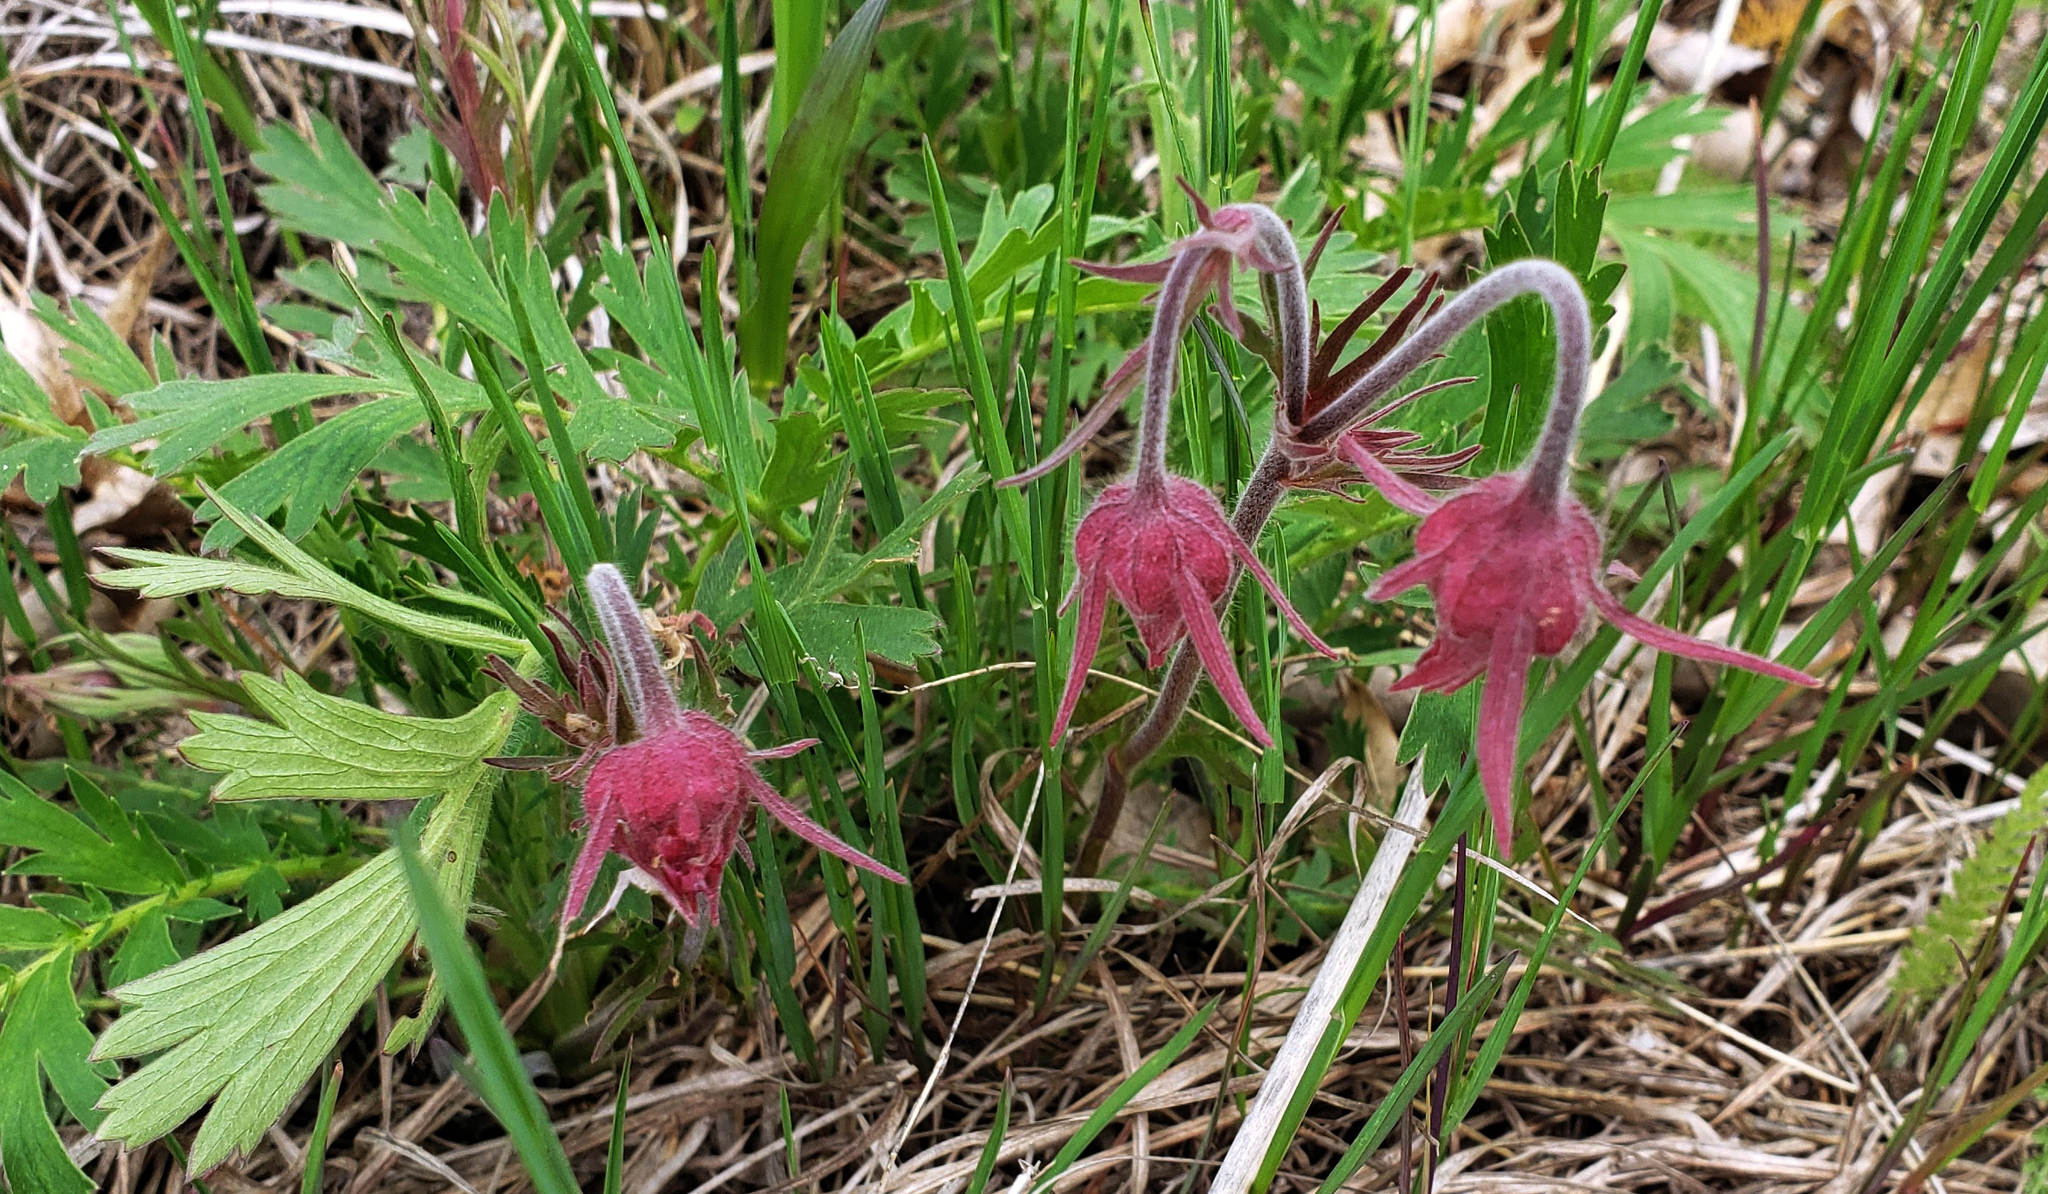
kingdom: Plantae
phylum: Tracheophyta
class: Magnoliopsida
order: Rosales
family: Rosaceae
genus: Geum
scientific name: Geum triflorum
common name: Old man's whiskers
